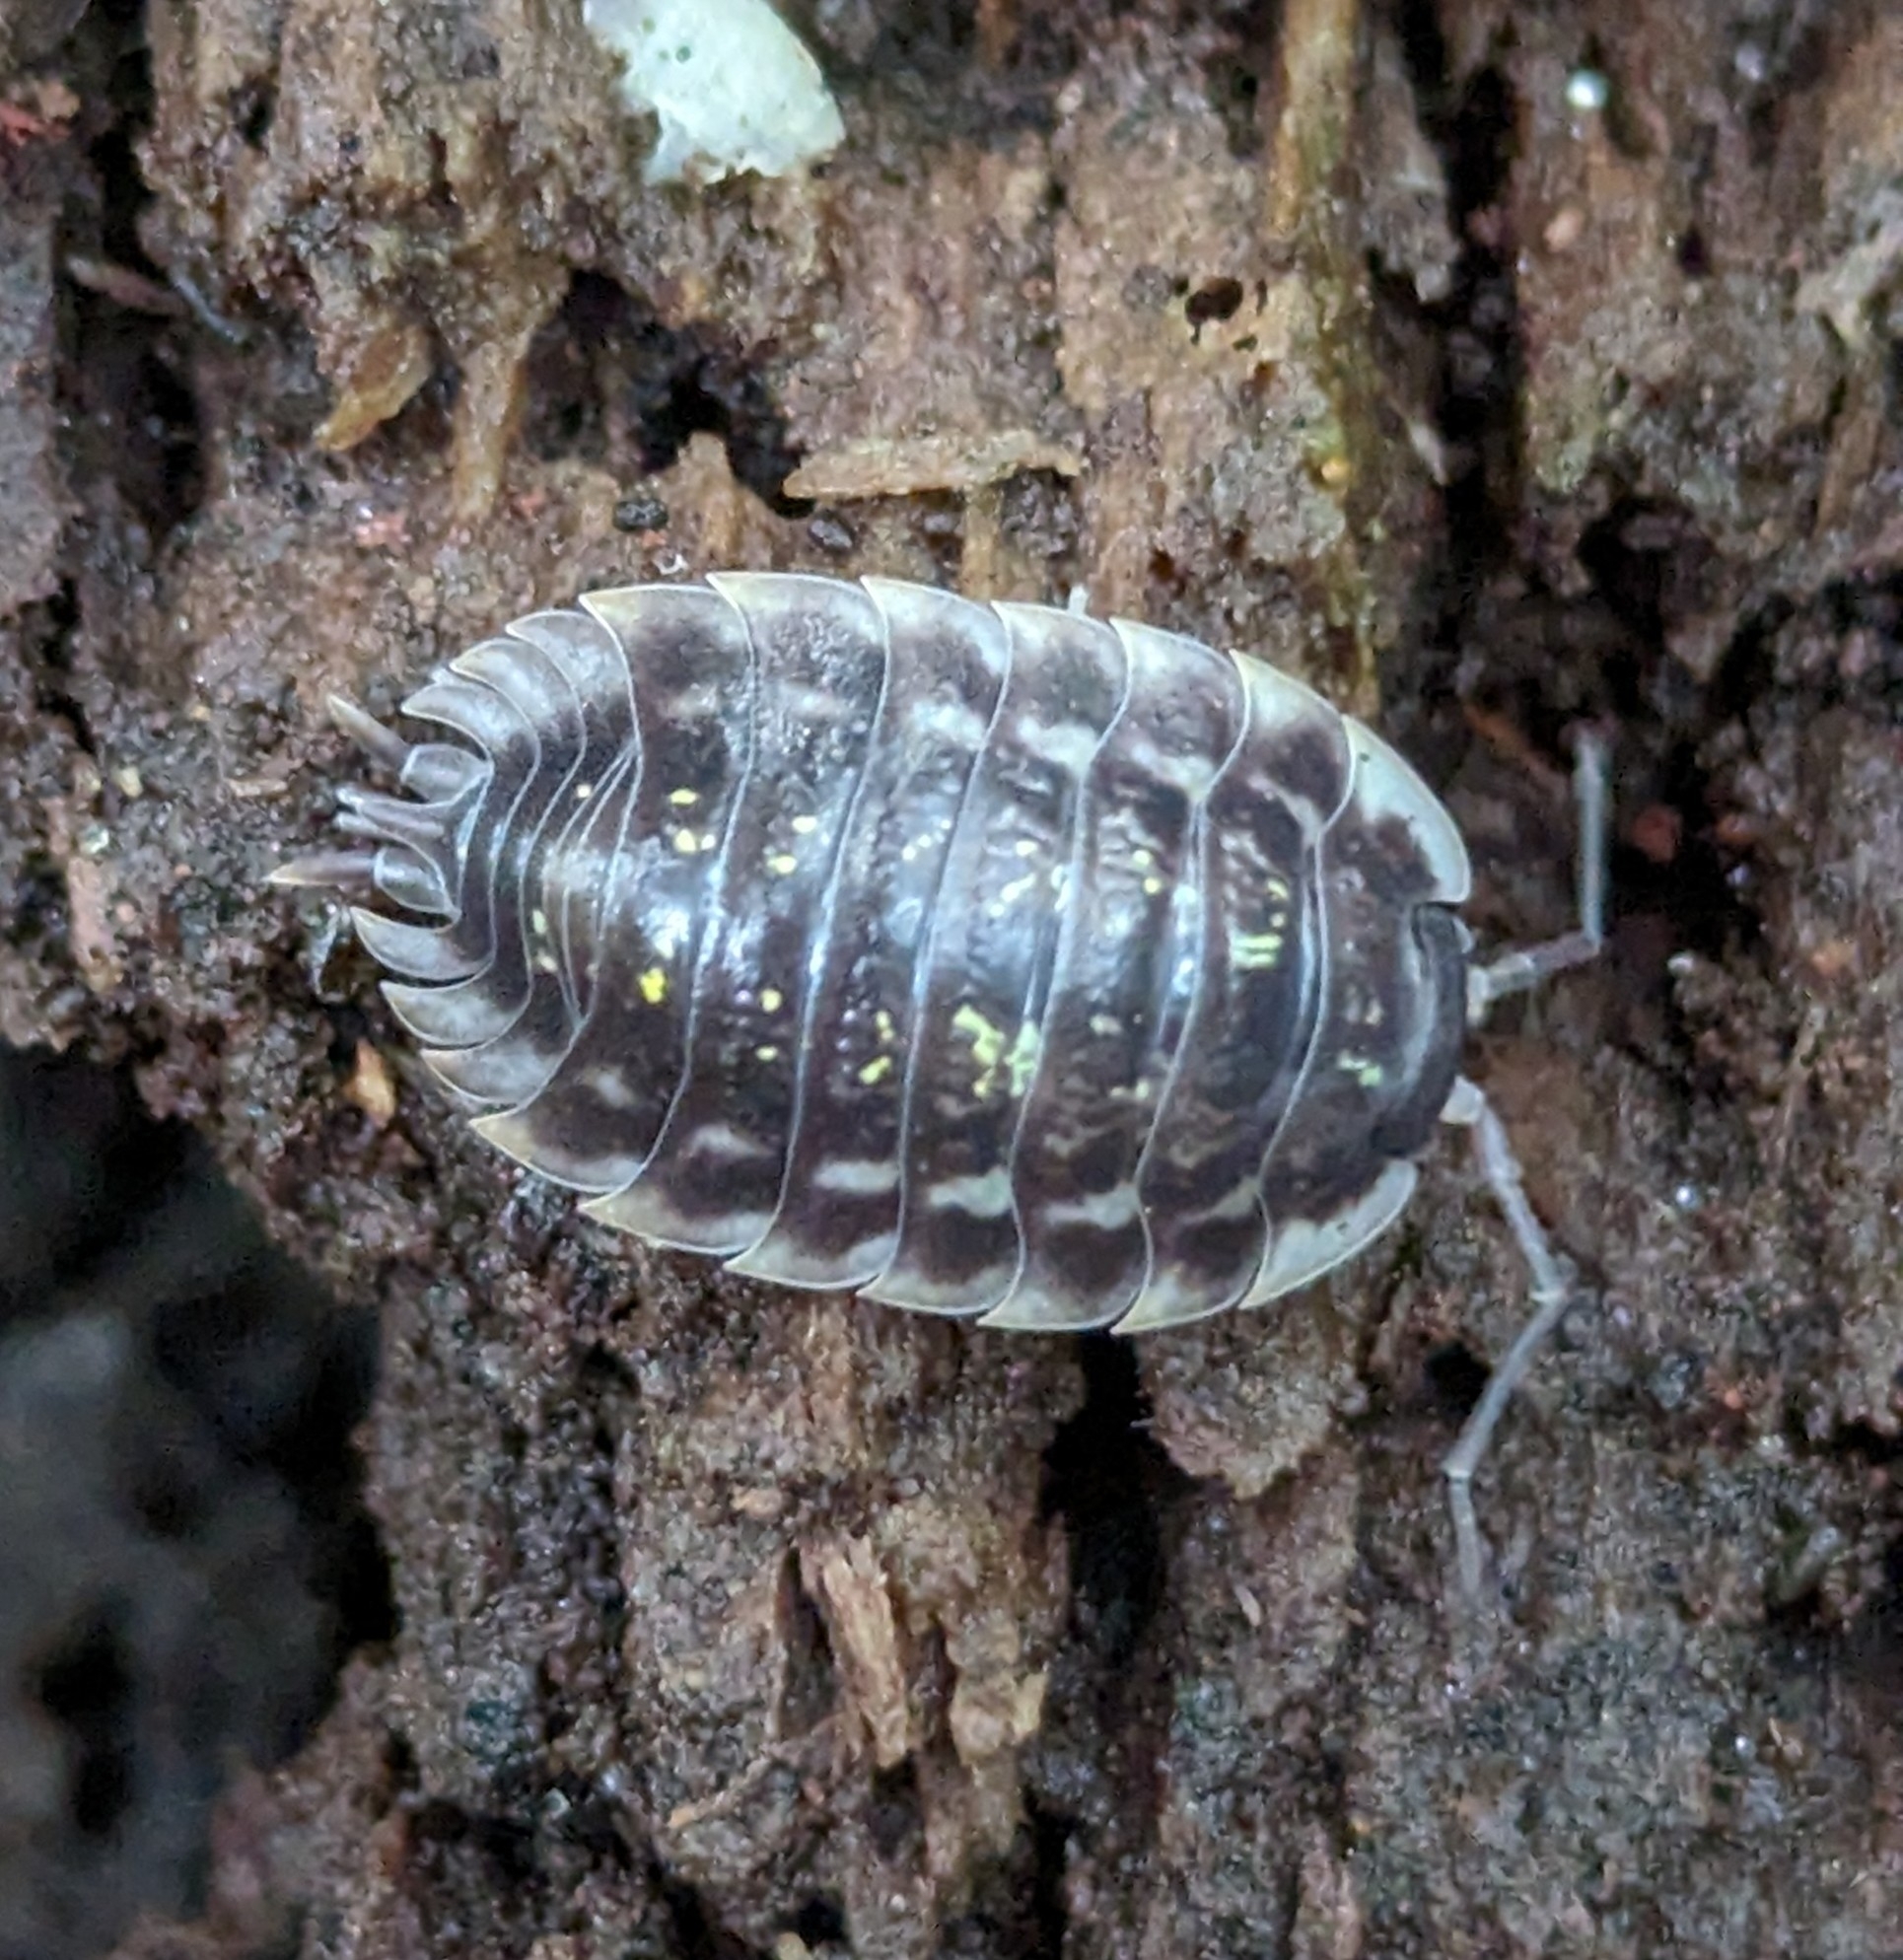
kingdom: Animalia
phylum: Arthropoda
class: Malacostraca
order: Isopoda
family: Oniscidae
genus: Oniscus
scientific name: Oniscus asellus
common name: Common shiny woodlouse
